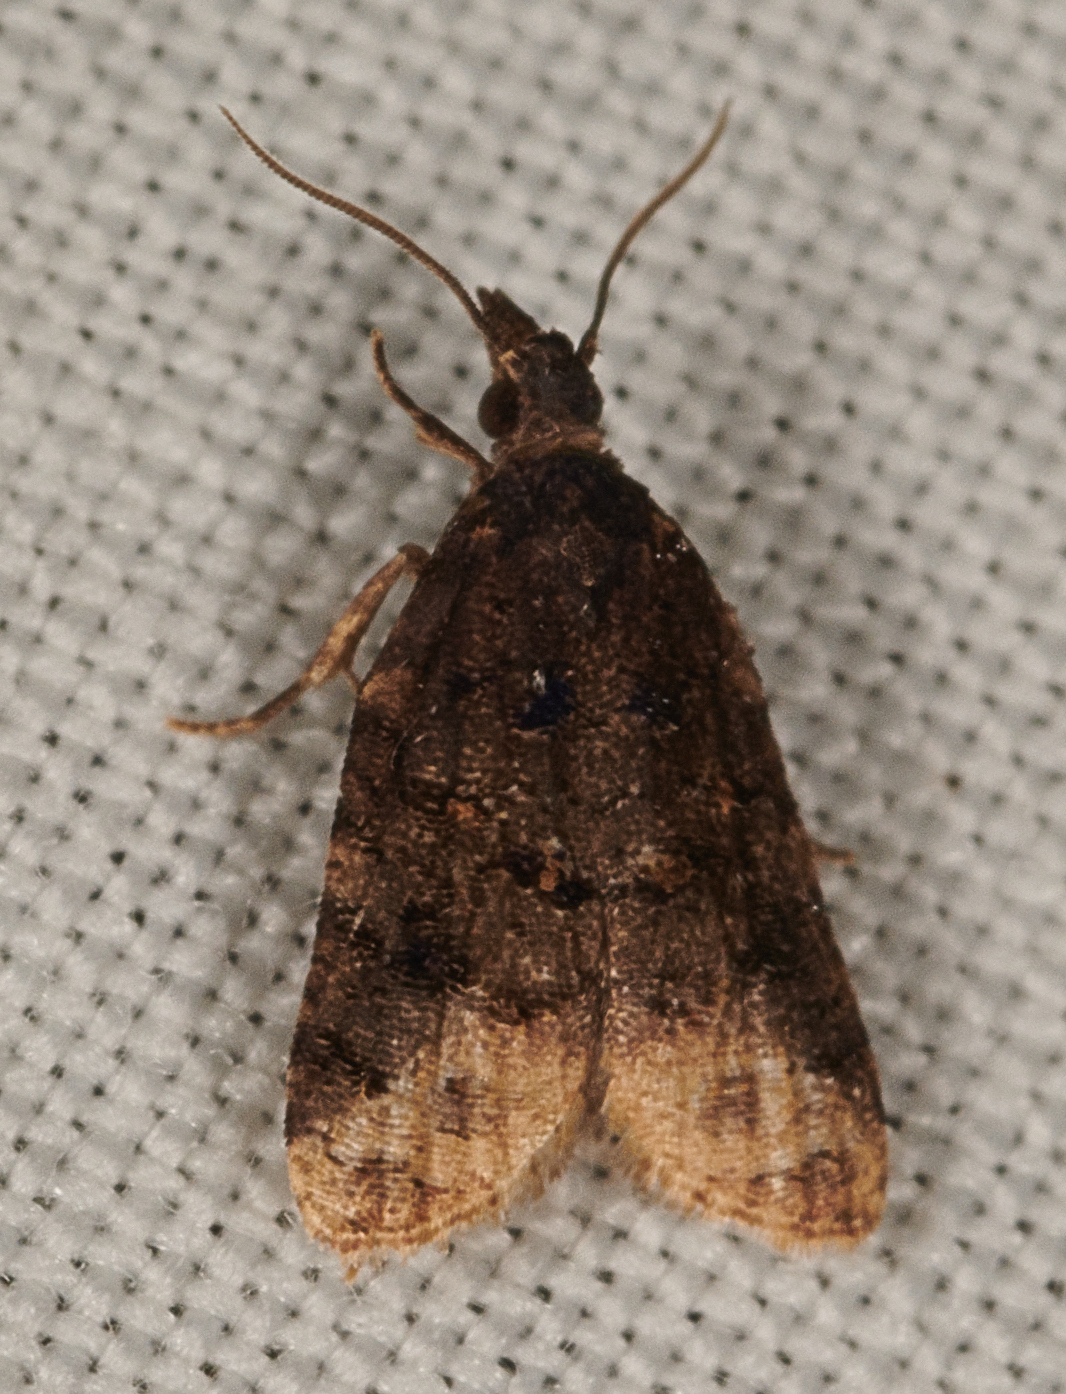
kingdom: Animalia
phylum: Arthropoda
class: Insecta
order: Lepidoptera
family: Tortricidae
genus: Platynota
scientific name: Platynota semiustana
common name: Singed platynota
